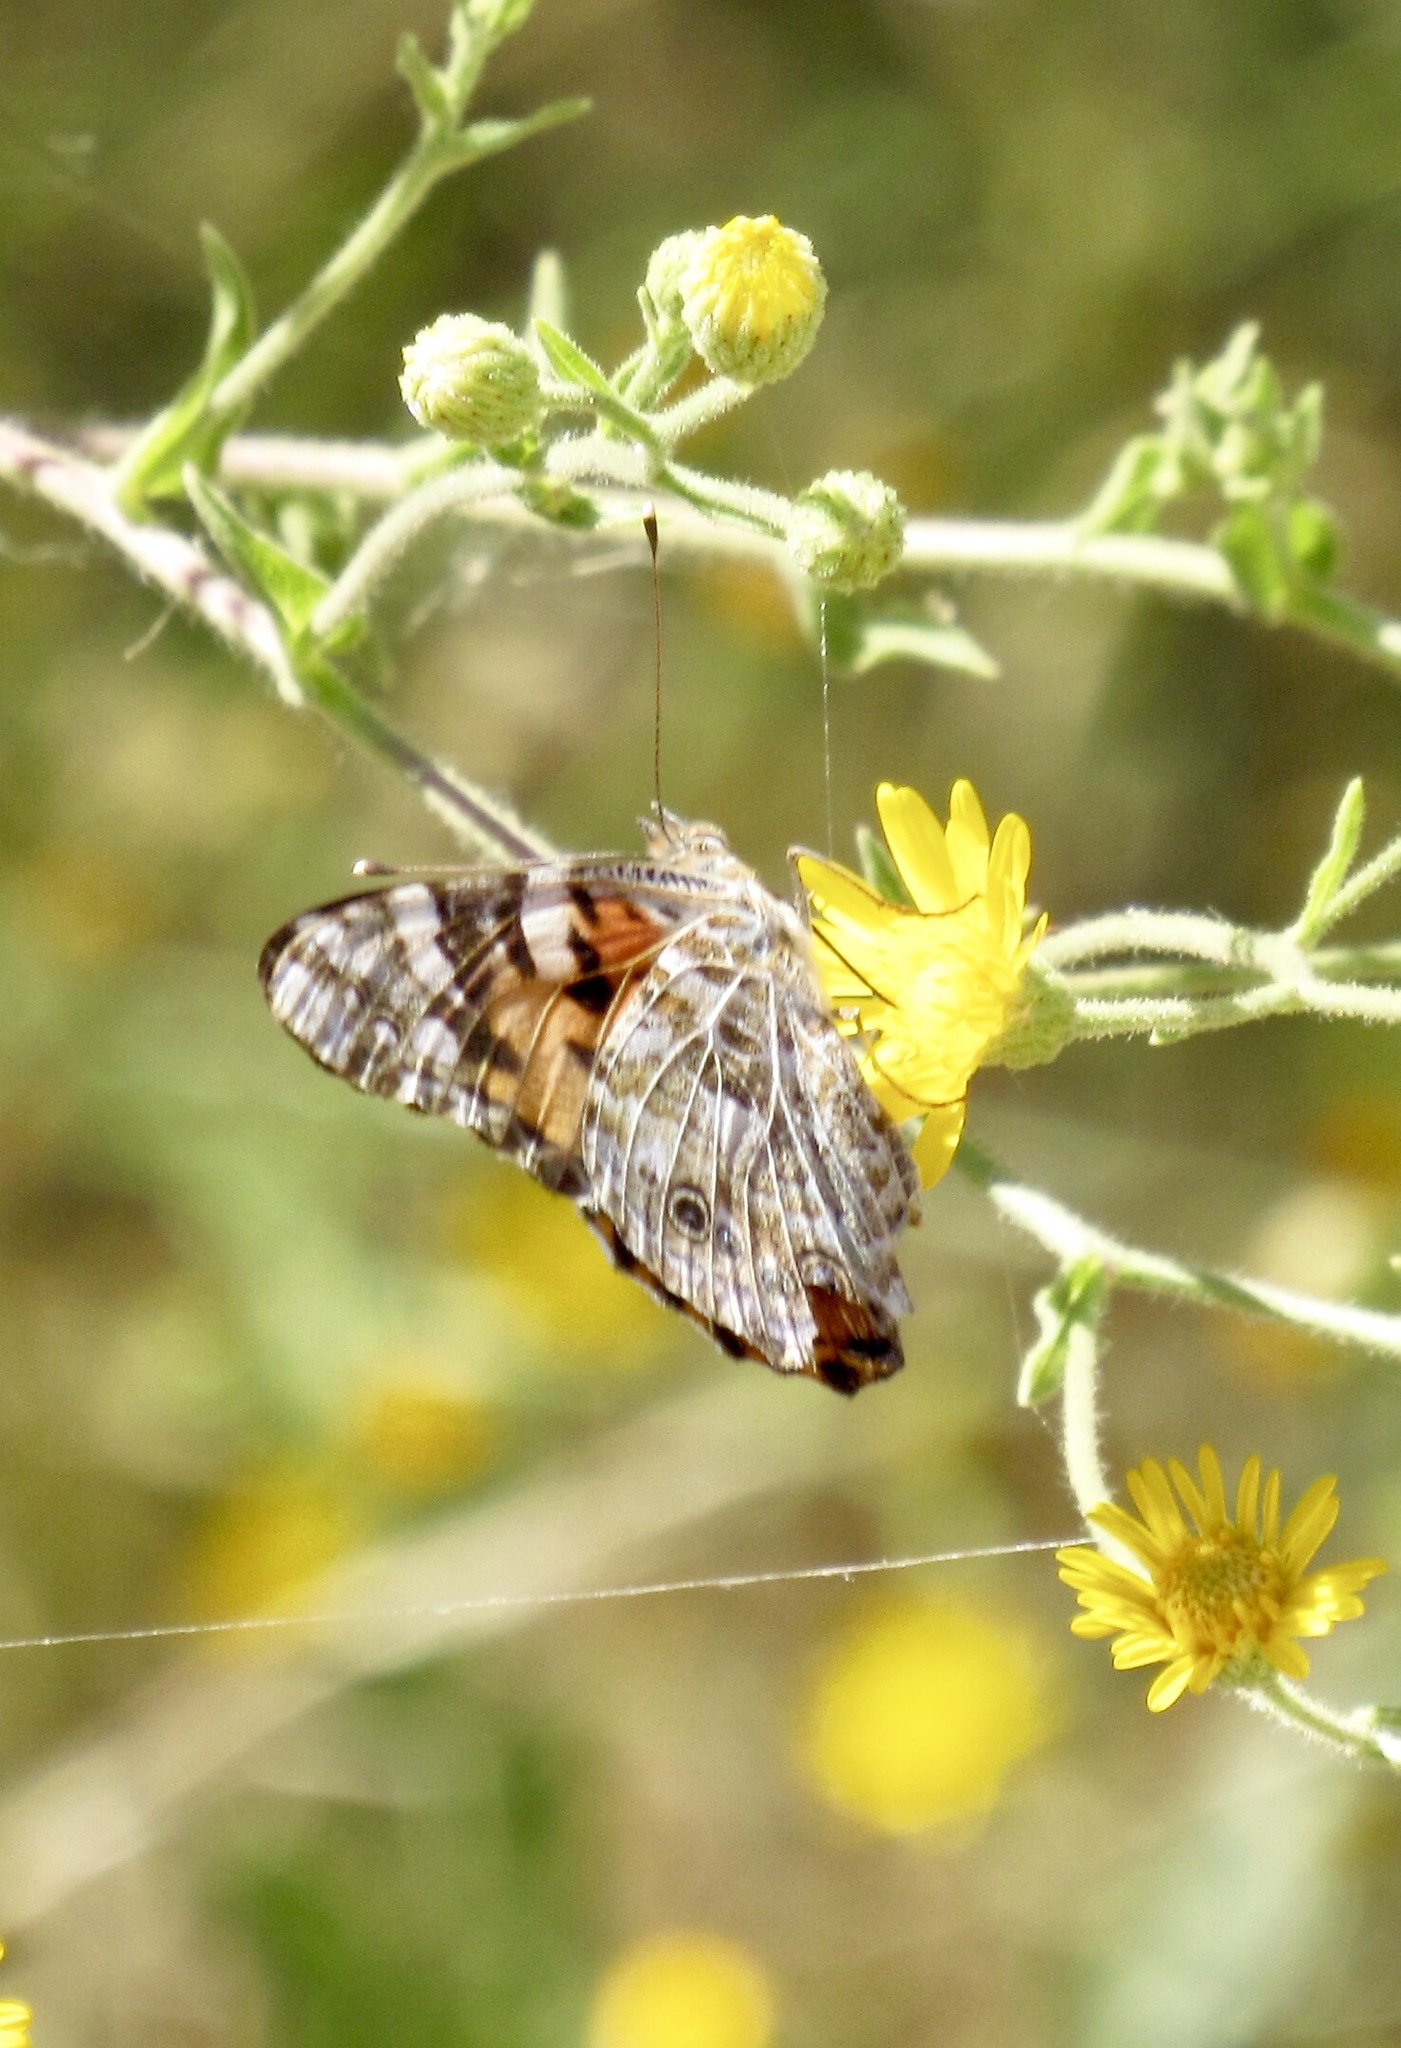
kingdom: Animalia
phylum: Arthropoda
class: Insecta
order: Lepidoptera
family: Nymphalidae
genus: Vanessa
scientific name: Vanessa cardui
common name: Painted lady
